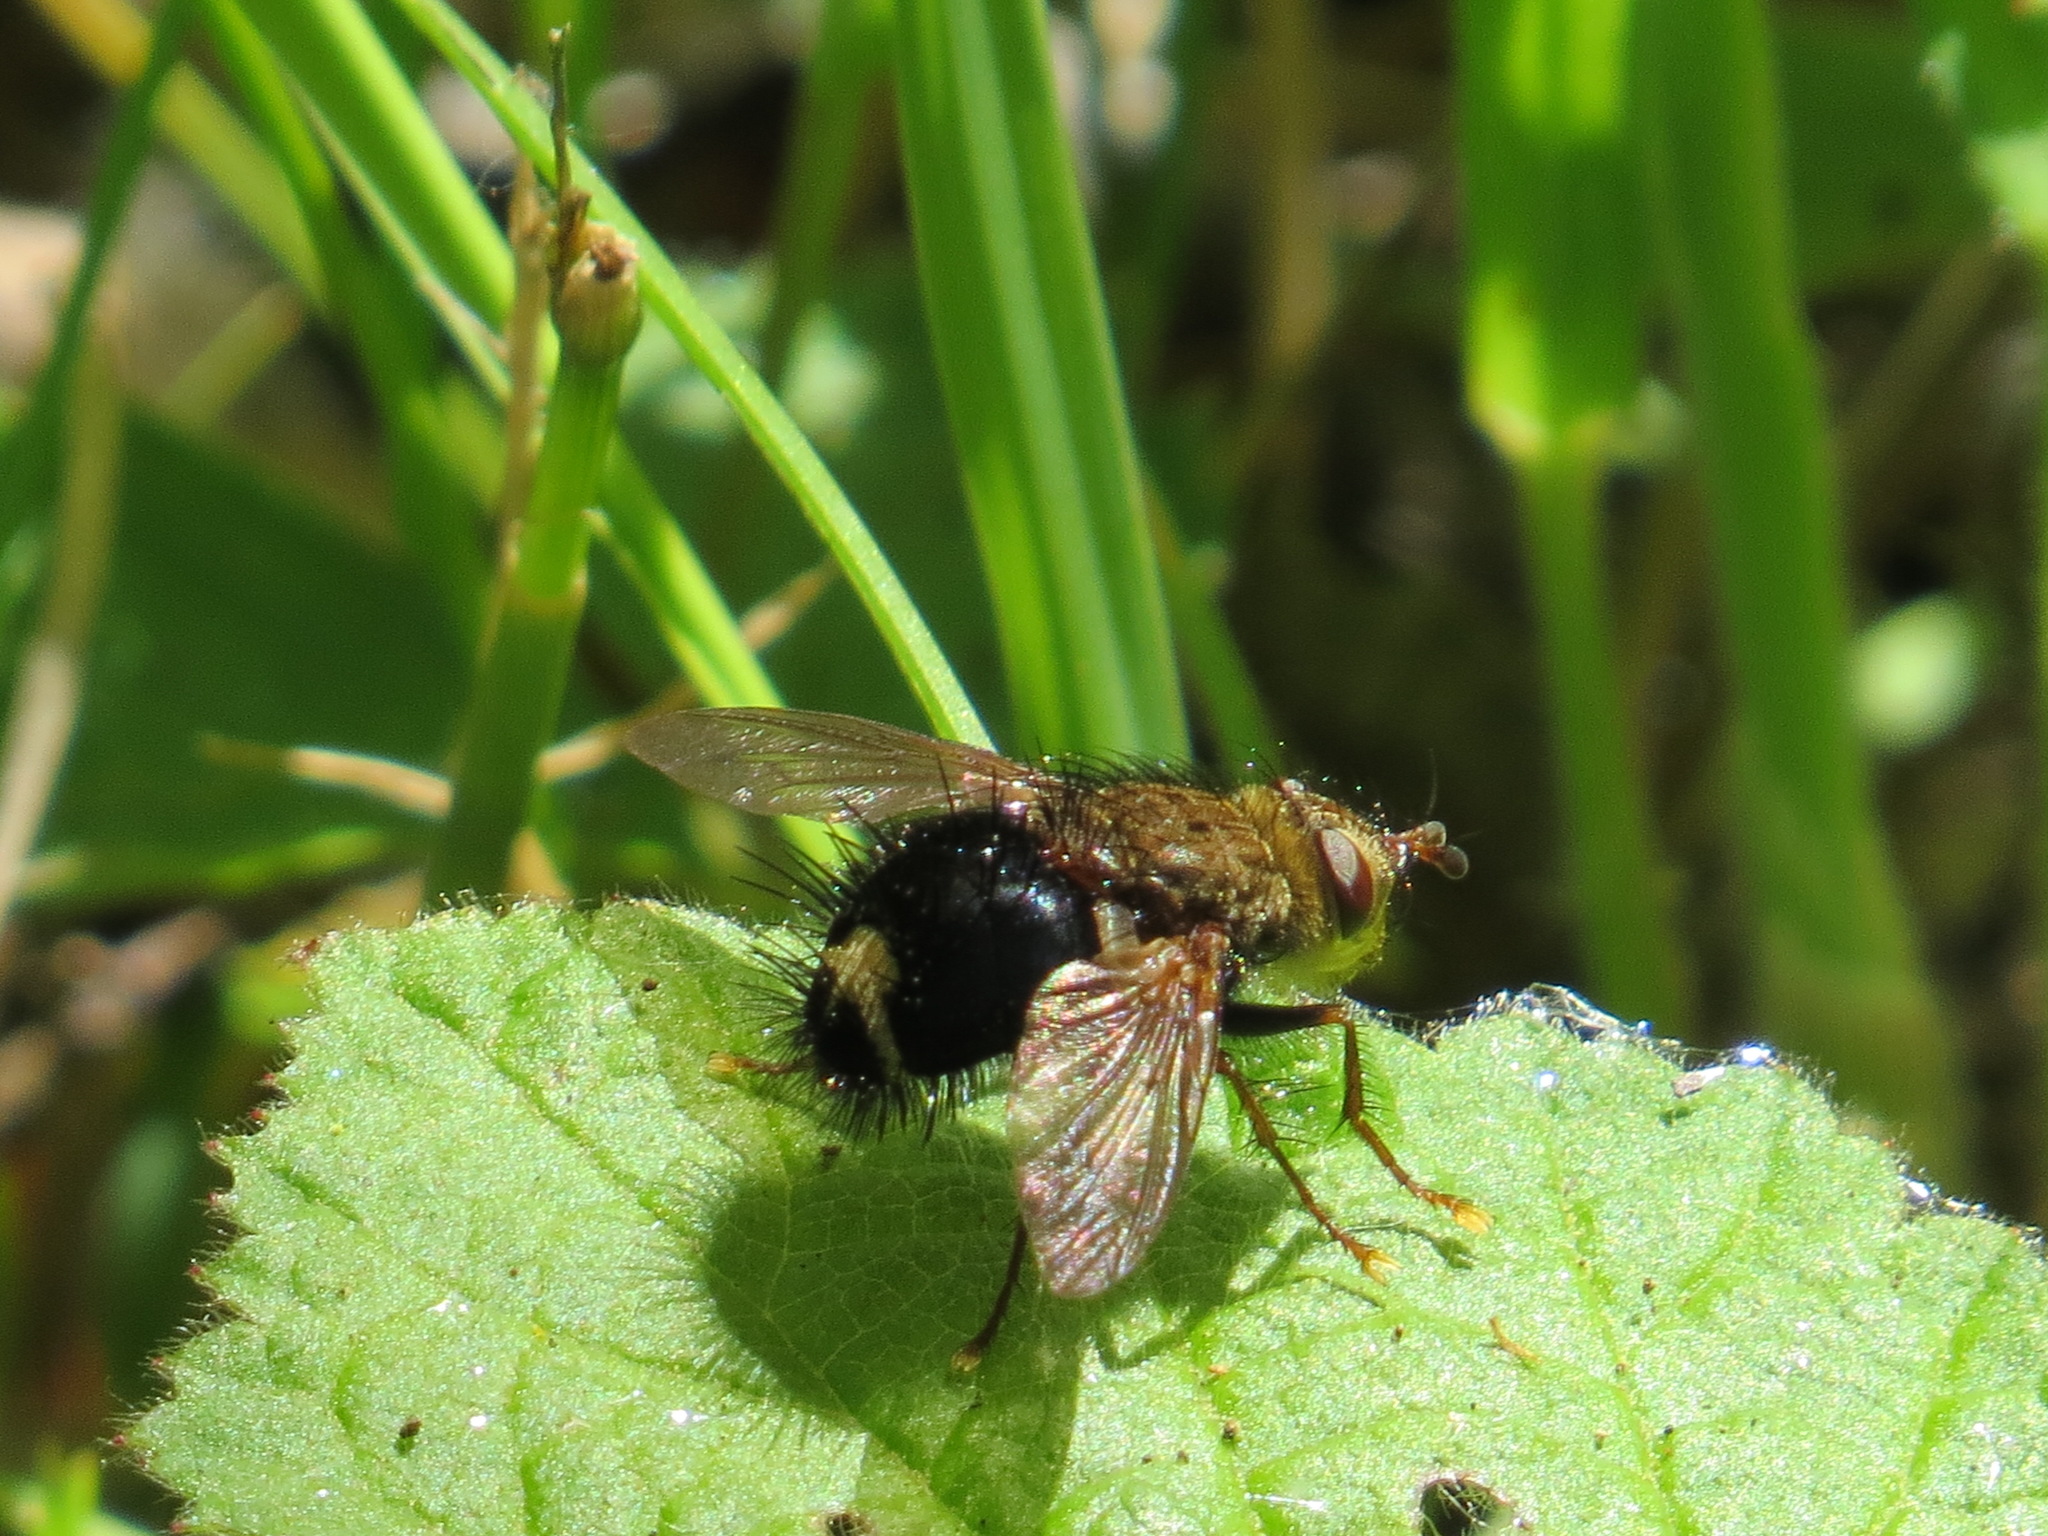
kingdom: Animalia
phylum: Arthropoda
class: Insecta
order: Diptera
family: Tachinidae
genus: Epalpus
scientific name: Epalpus signifer
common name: Early tachinid fly
